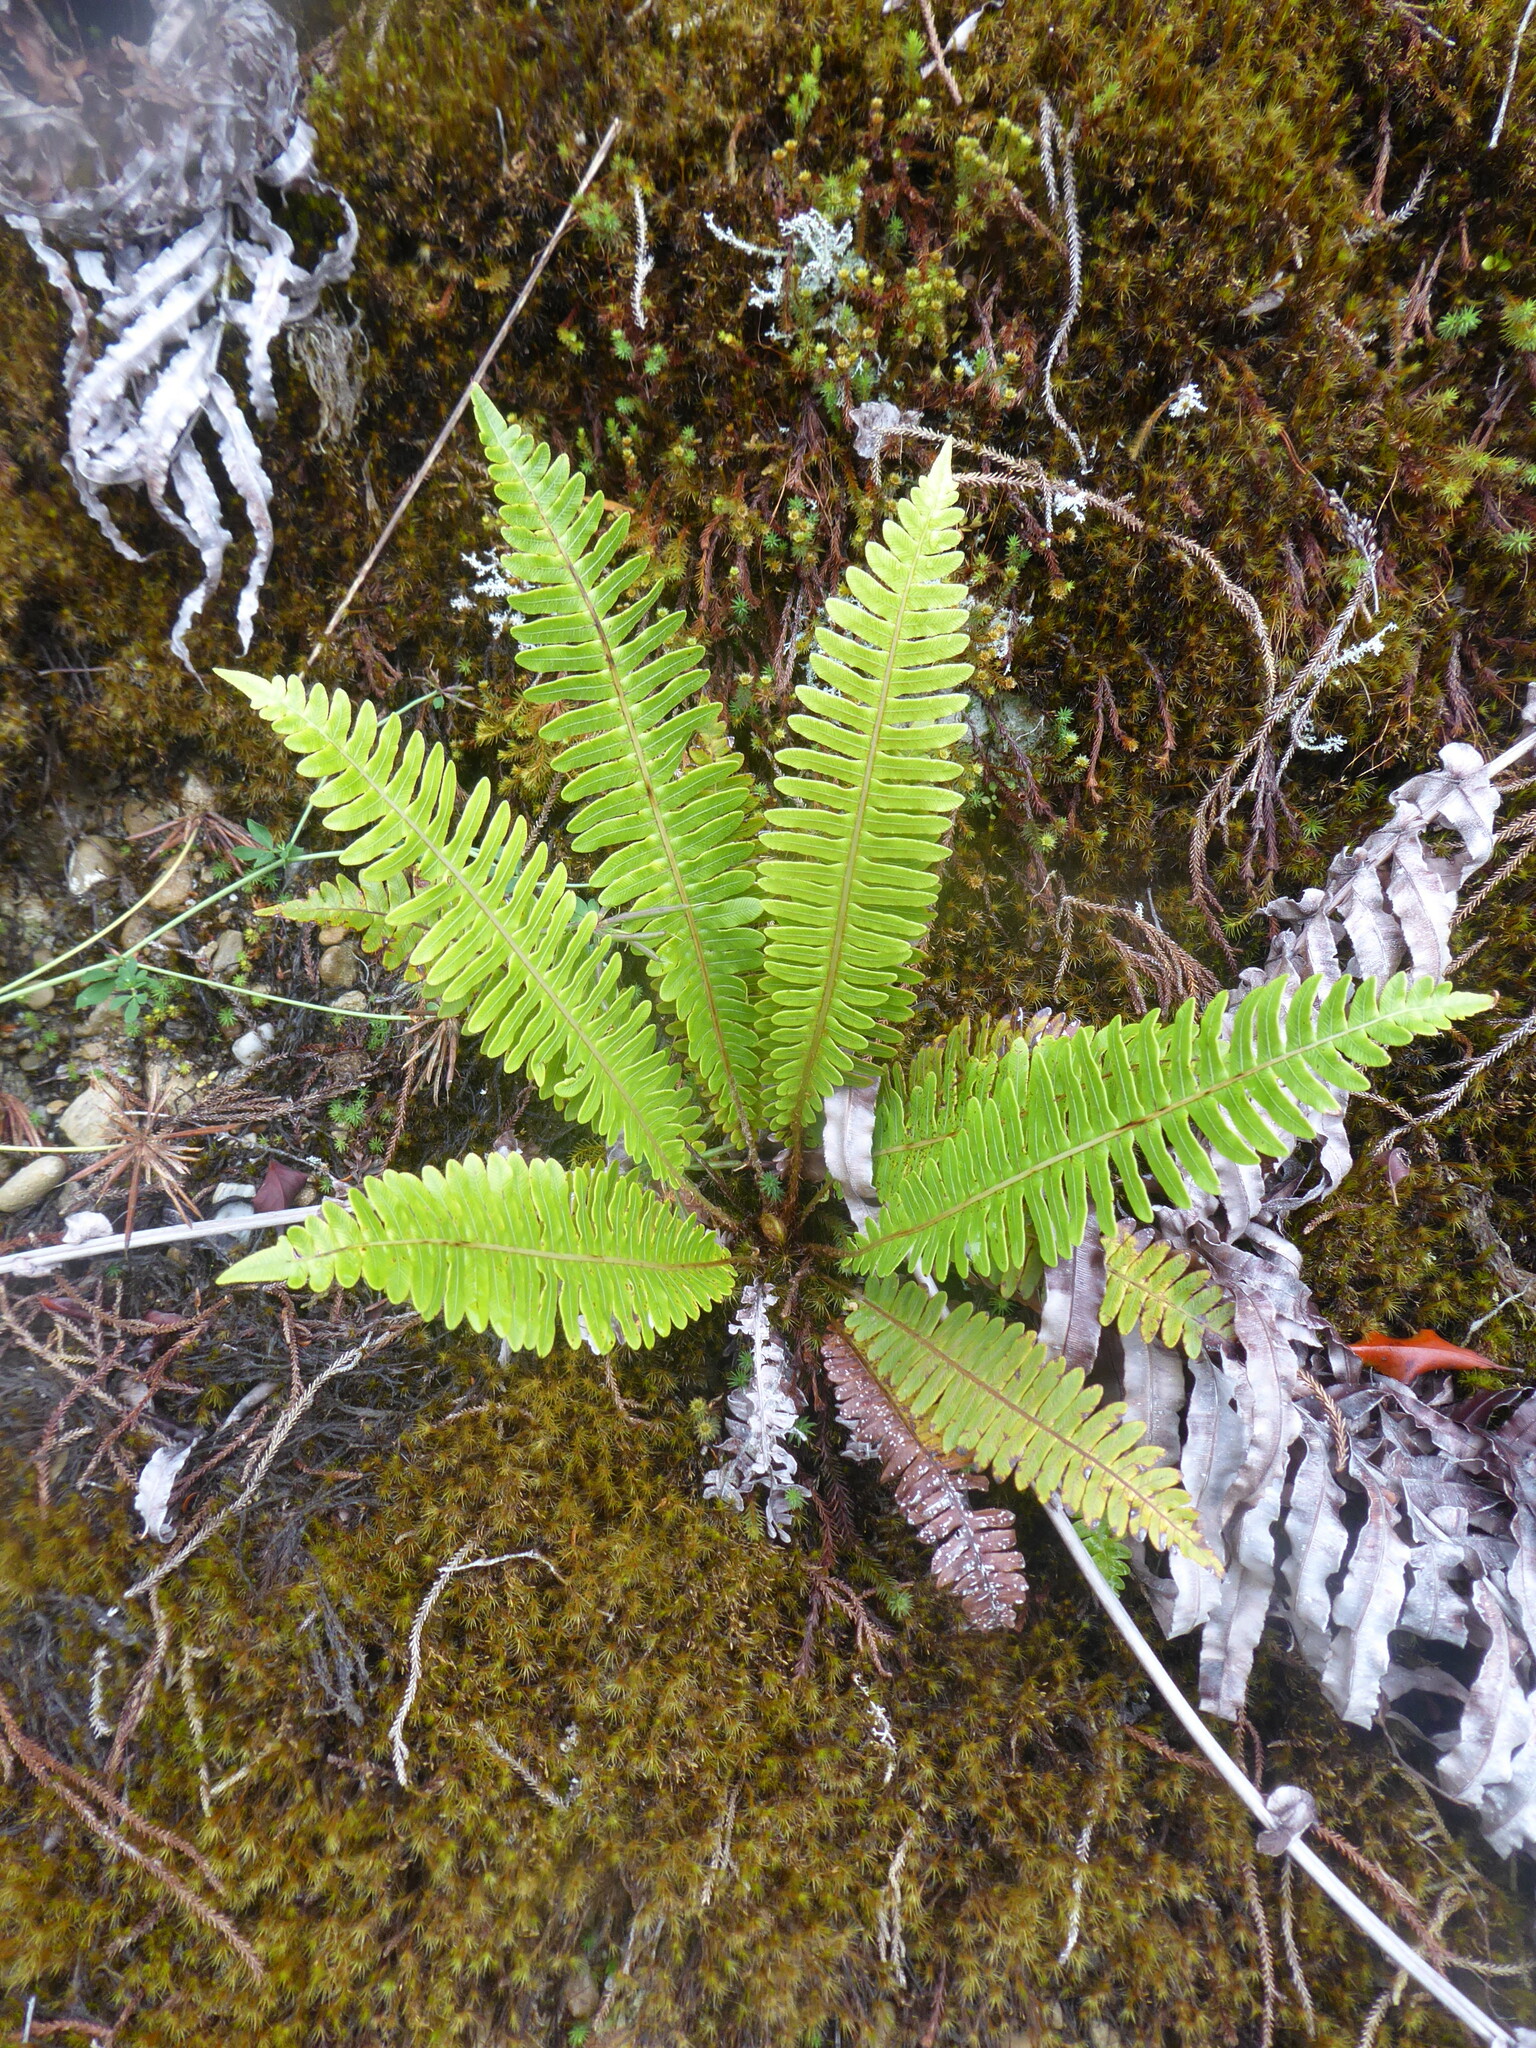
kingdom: Plantae
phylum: Tracheophyta
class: Polypodiopsida
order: Polypodiales
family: Blechnaceae
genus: Lomaria
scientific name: Lomaria discolor
